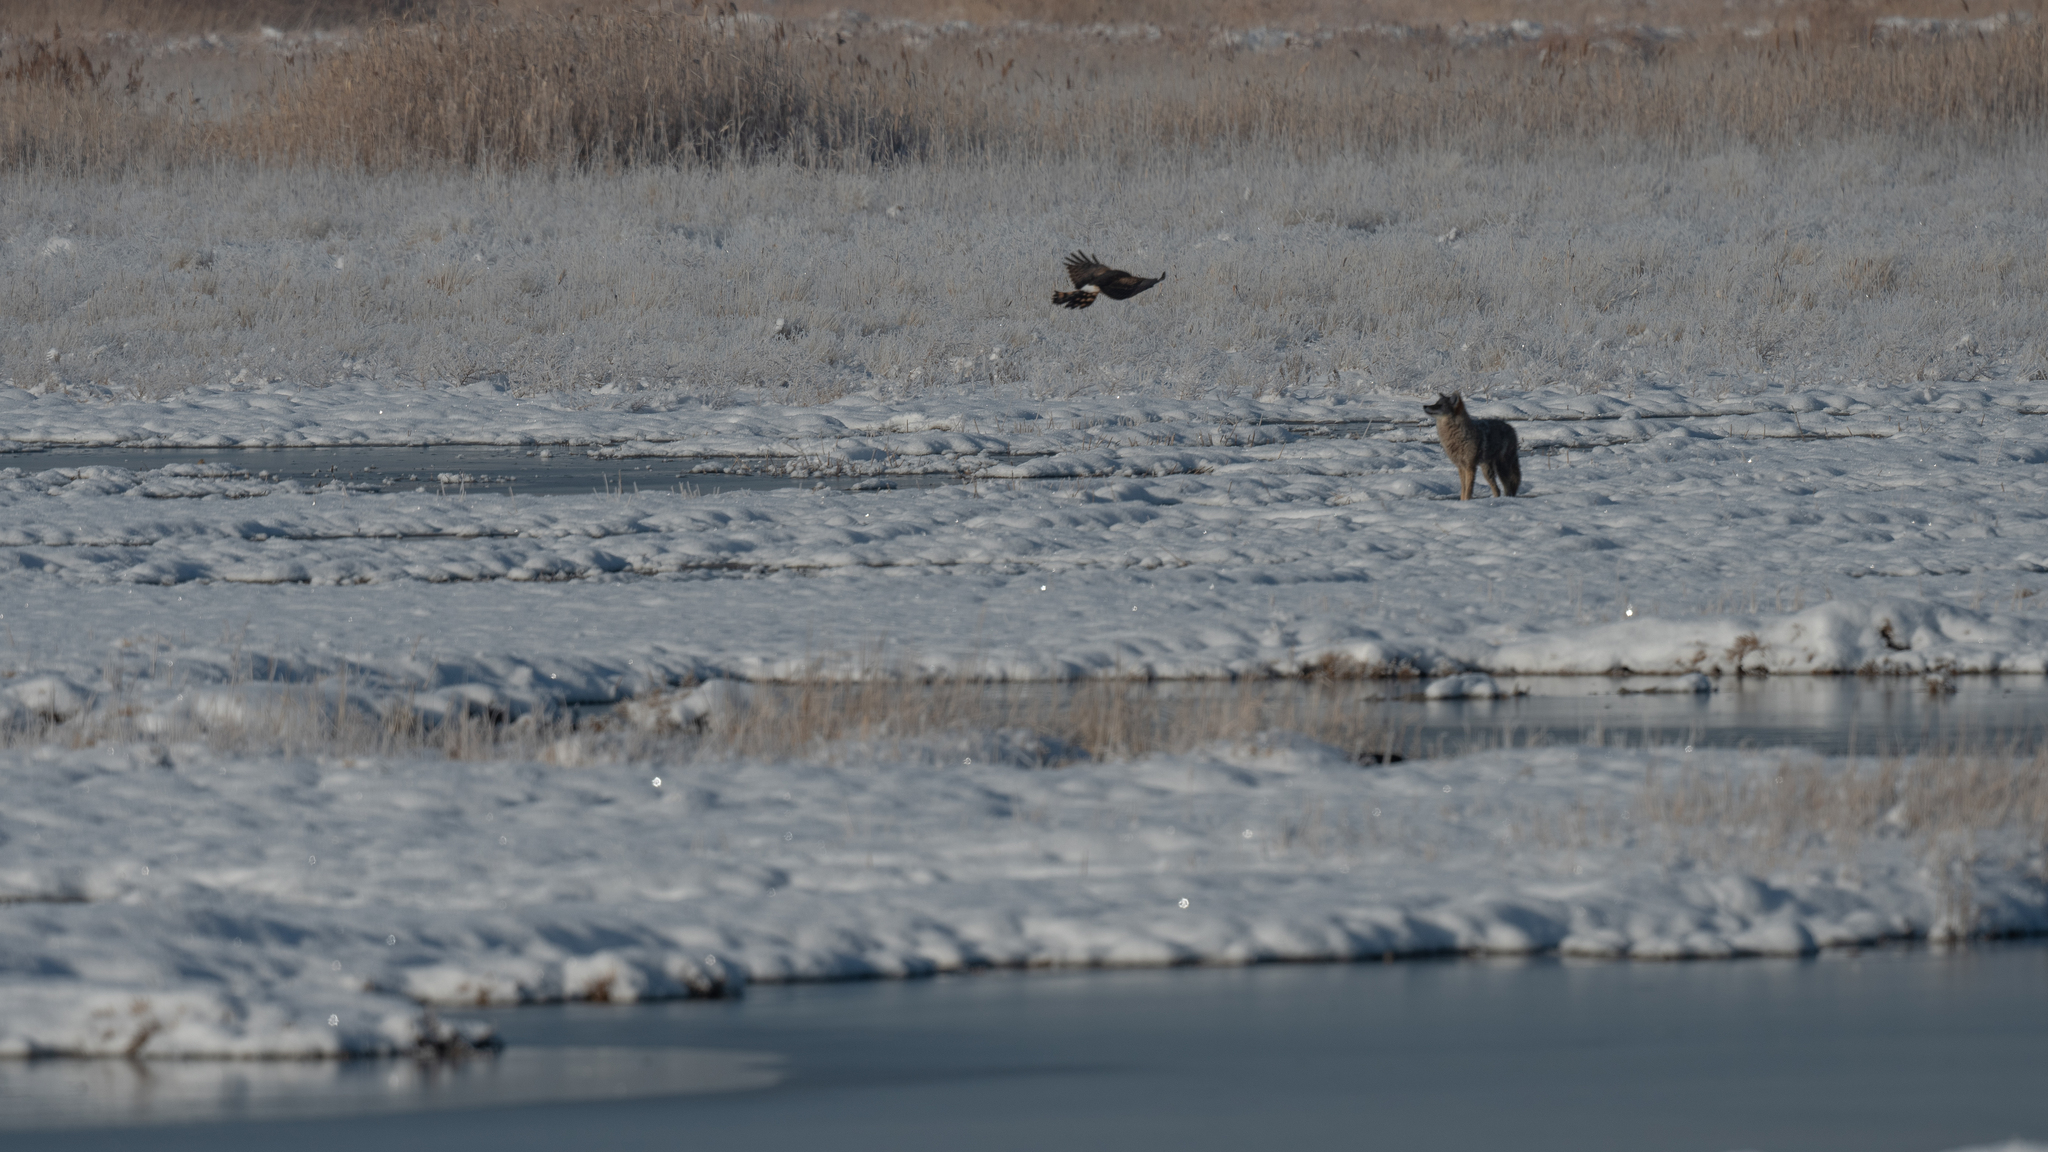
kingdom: Animalia
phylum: Chordata
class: Mammalia
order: Carnivora
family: Canidae
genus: Canis
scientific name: Canis latrans
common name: Coyote
